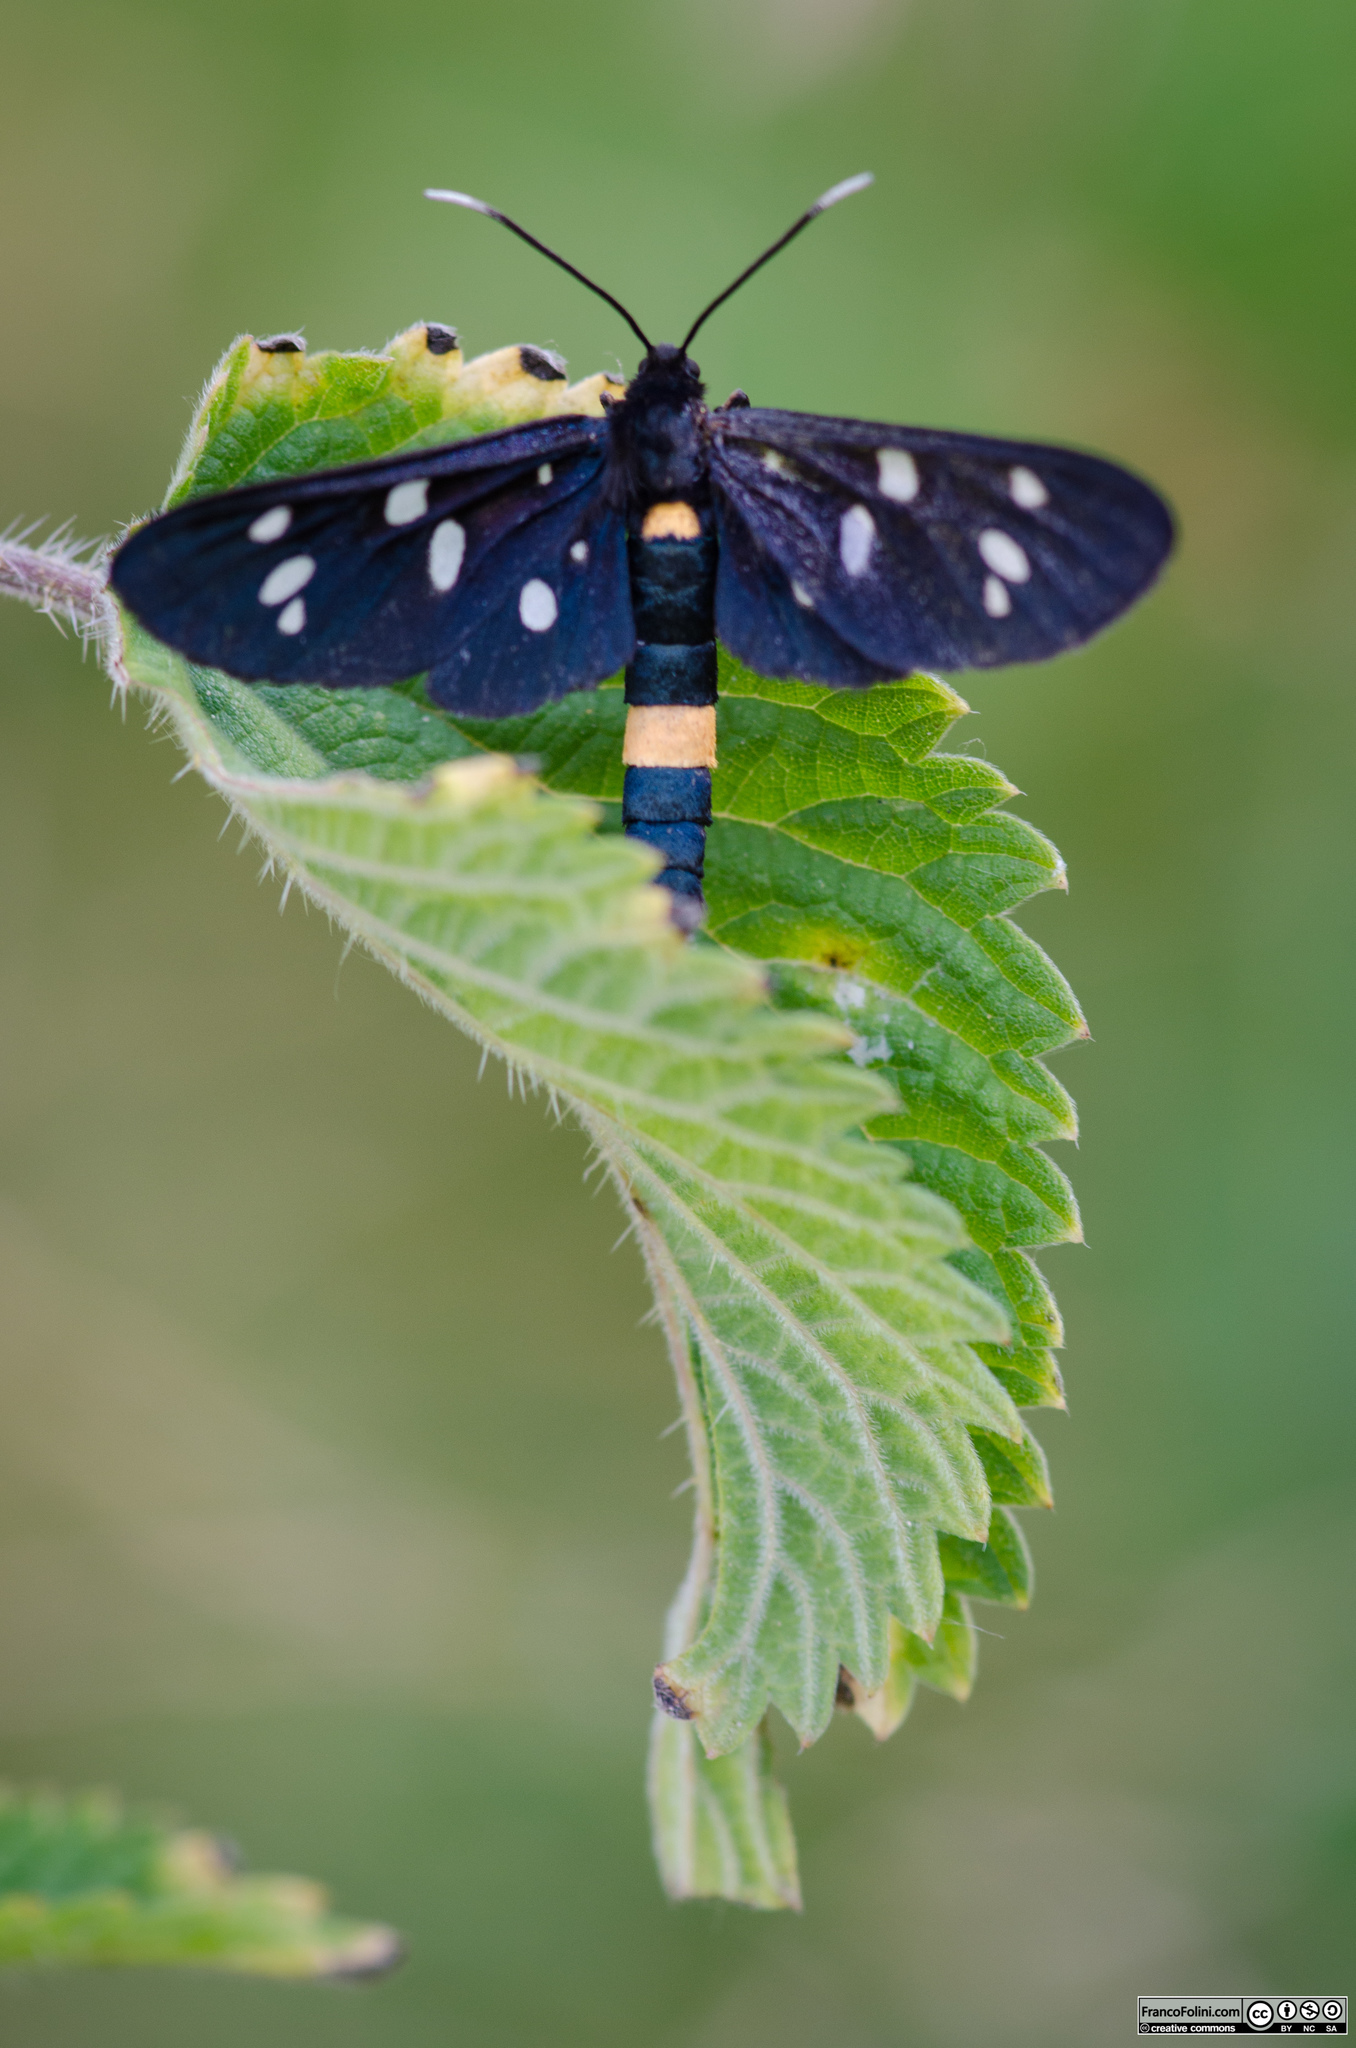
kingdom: Animalia
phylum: Arthropoda
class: Insecta
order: Lepidoptera
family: Erebidae
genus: Amata
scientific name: Amata phegea
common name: Nine-spotted
